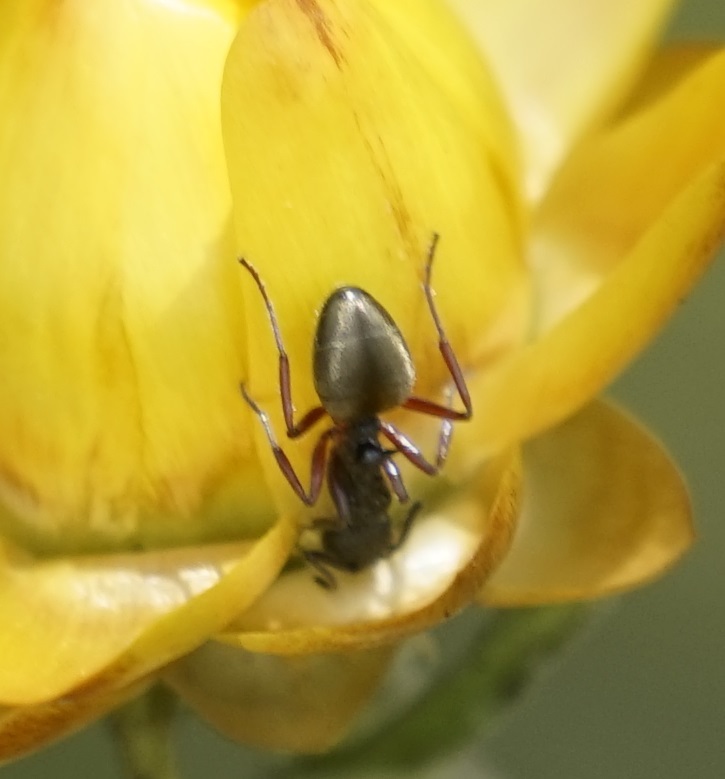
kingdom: Animalia
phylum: Arthropoda
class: Insecta
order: Hymenoptera
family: Formicidae
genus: Dolichoderus
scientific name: Dolichoderus scabridus
